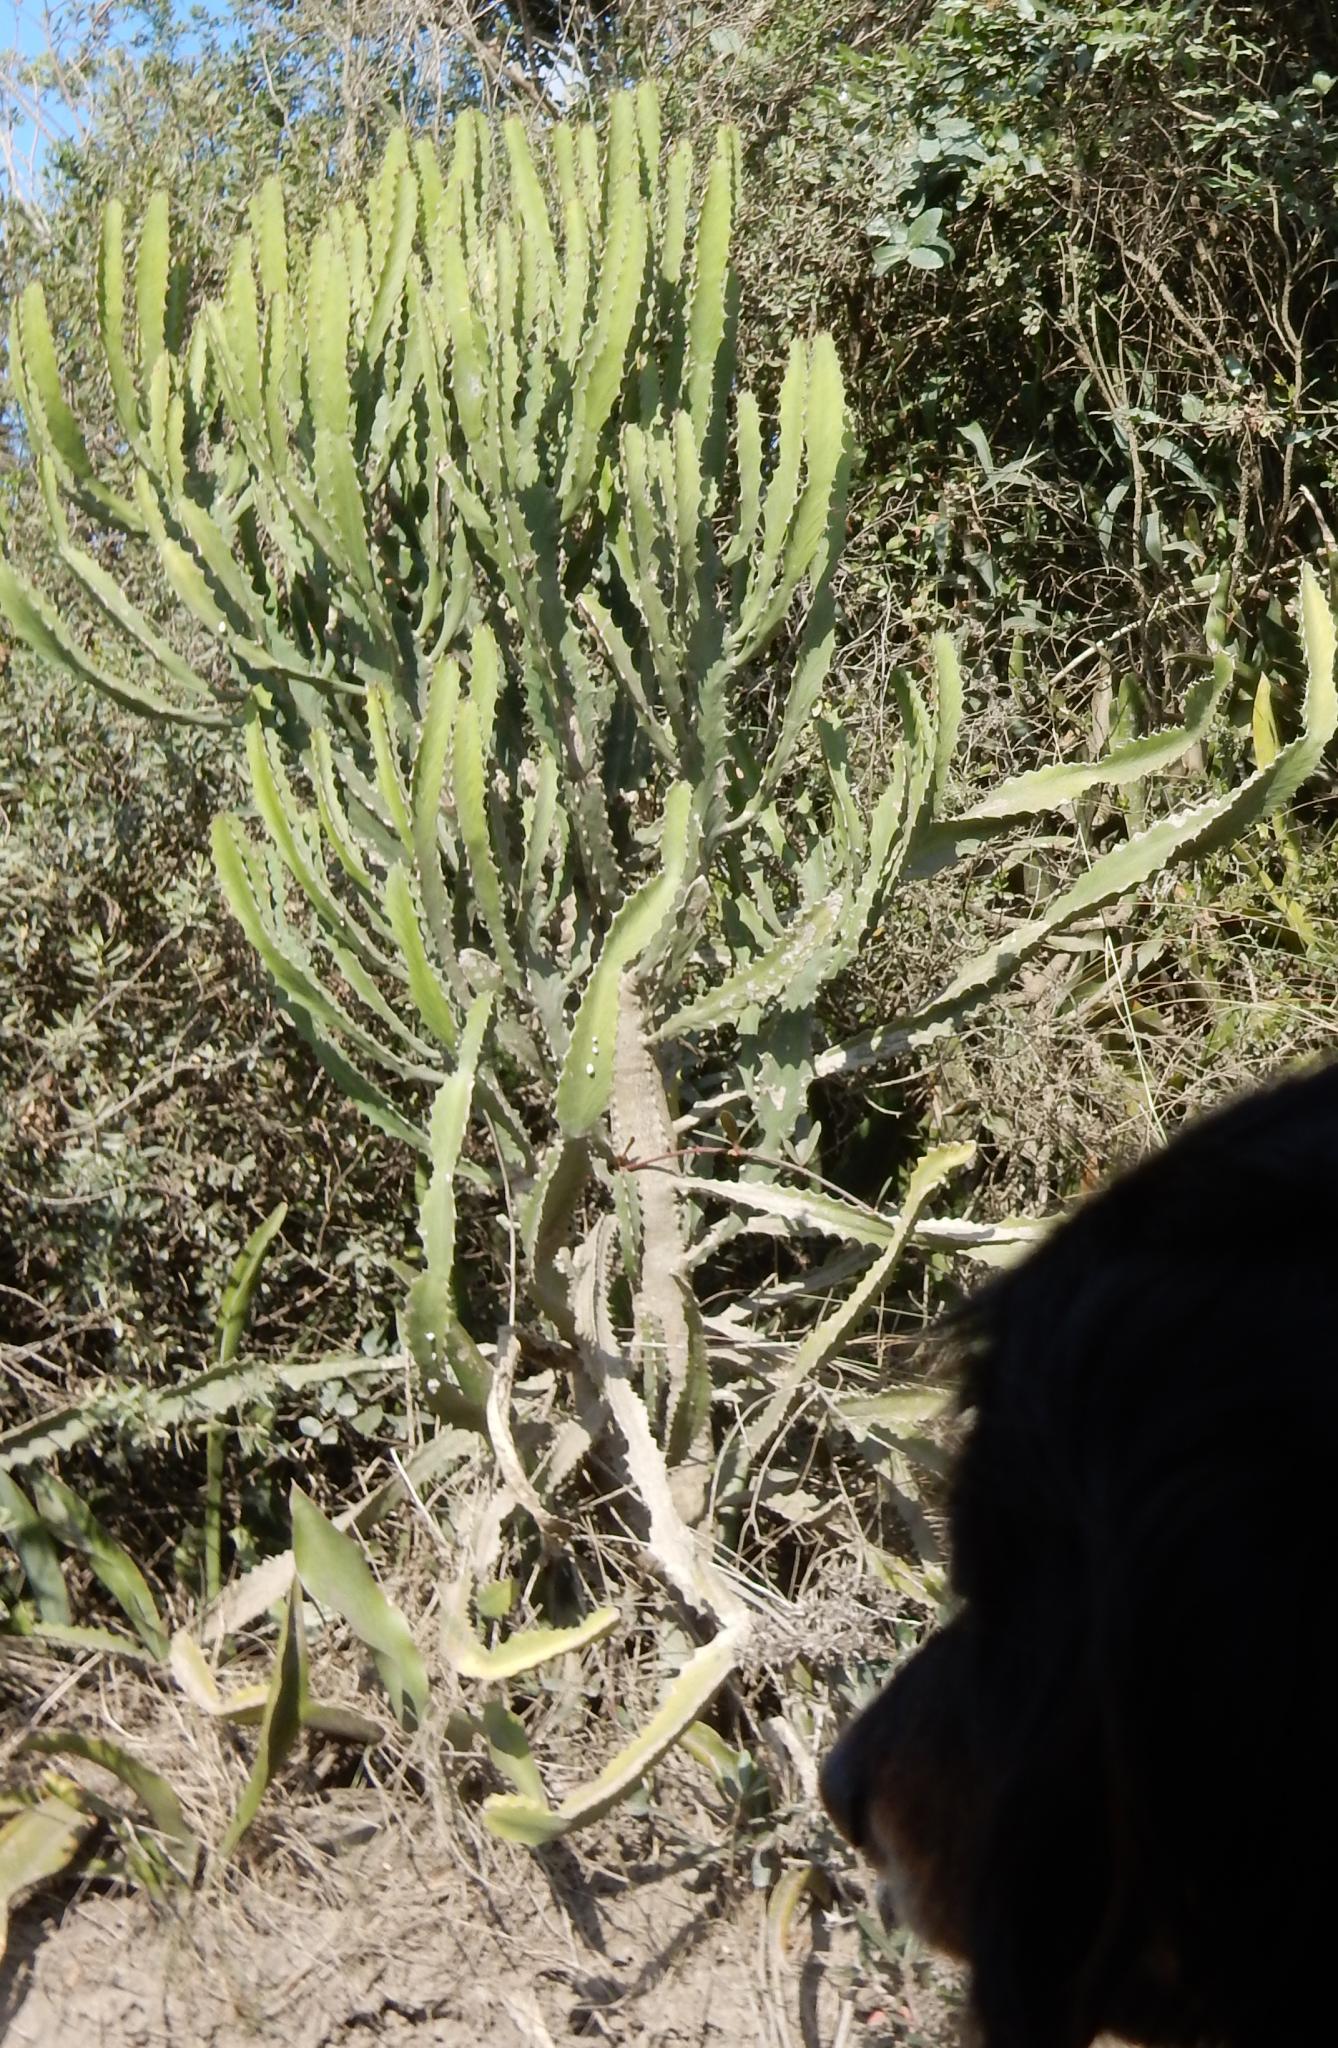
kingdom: Plantae
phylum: Tracheophyta
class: Magnoliopsida
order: Malpighiales
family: Euphorbiaceae
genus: Euphorbia
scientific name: Euphorbia triangularis
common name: Chandelier tree
